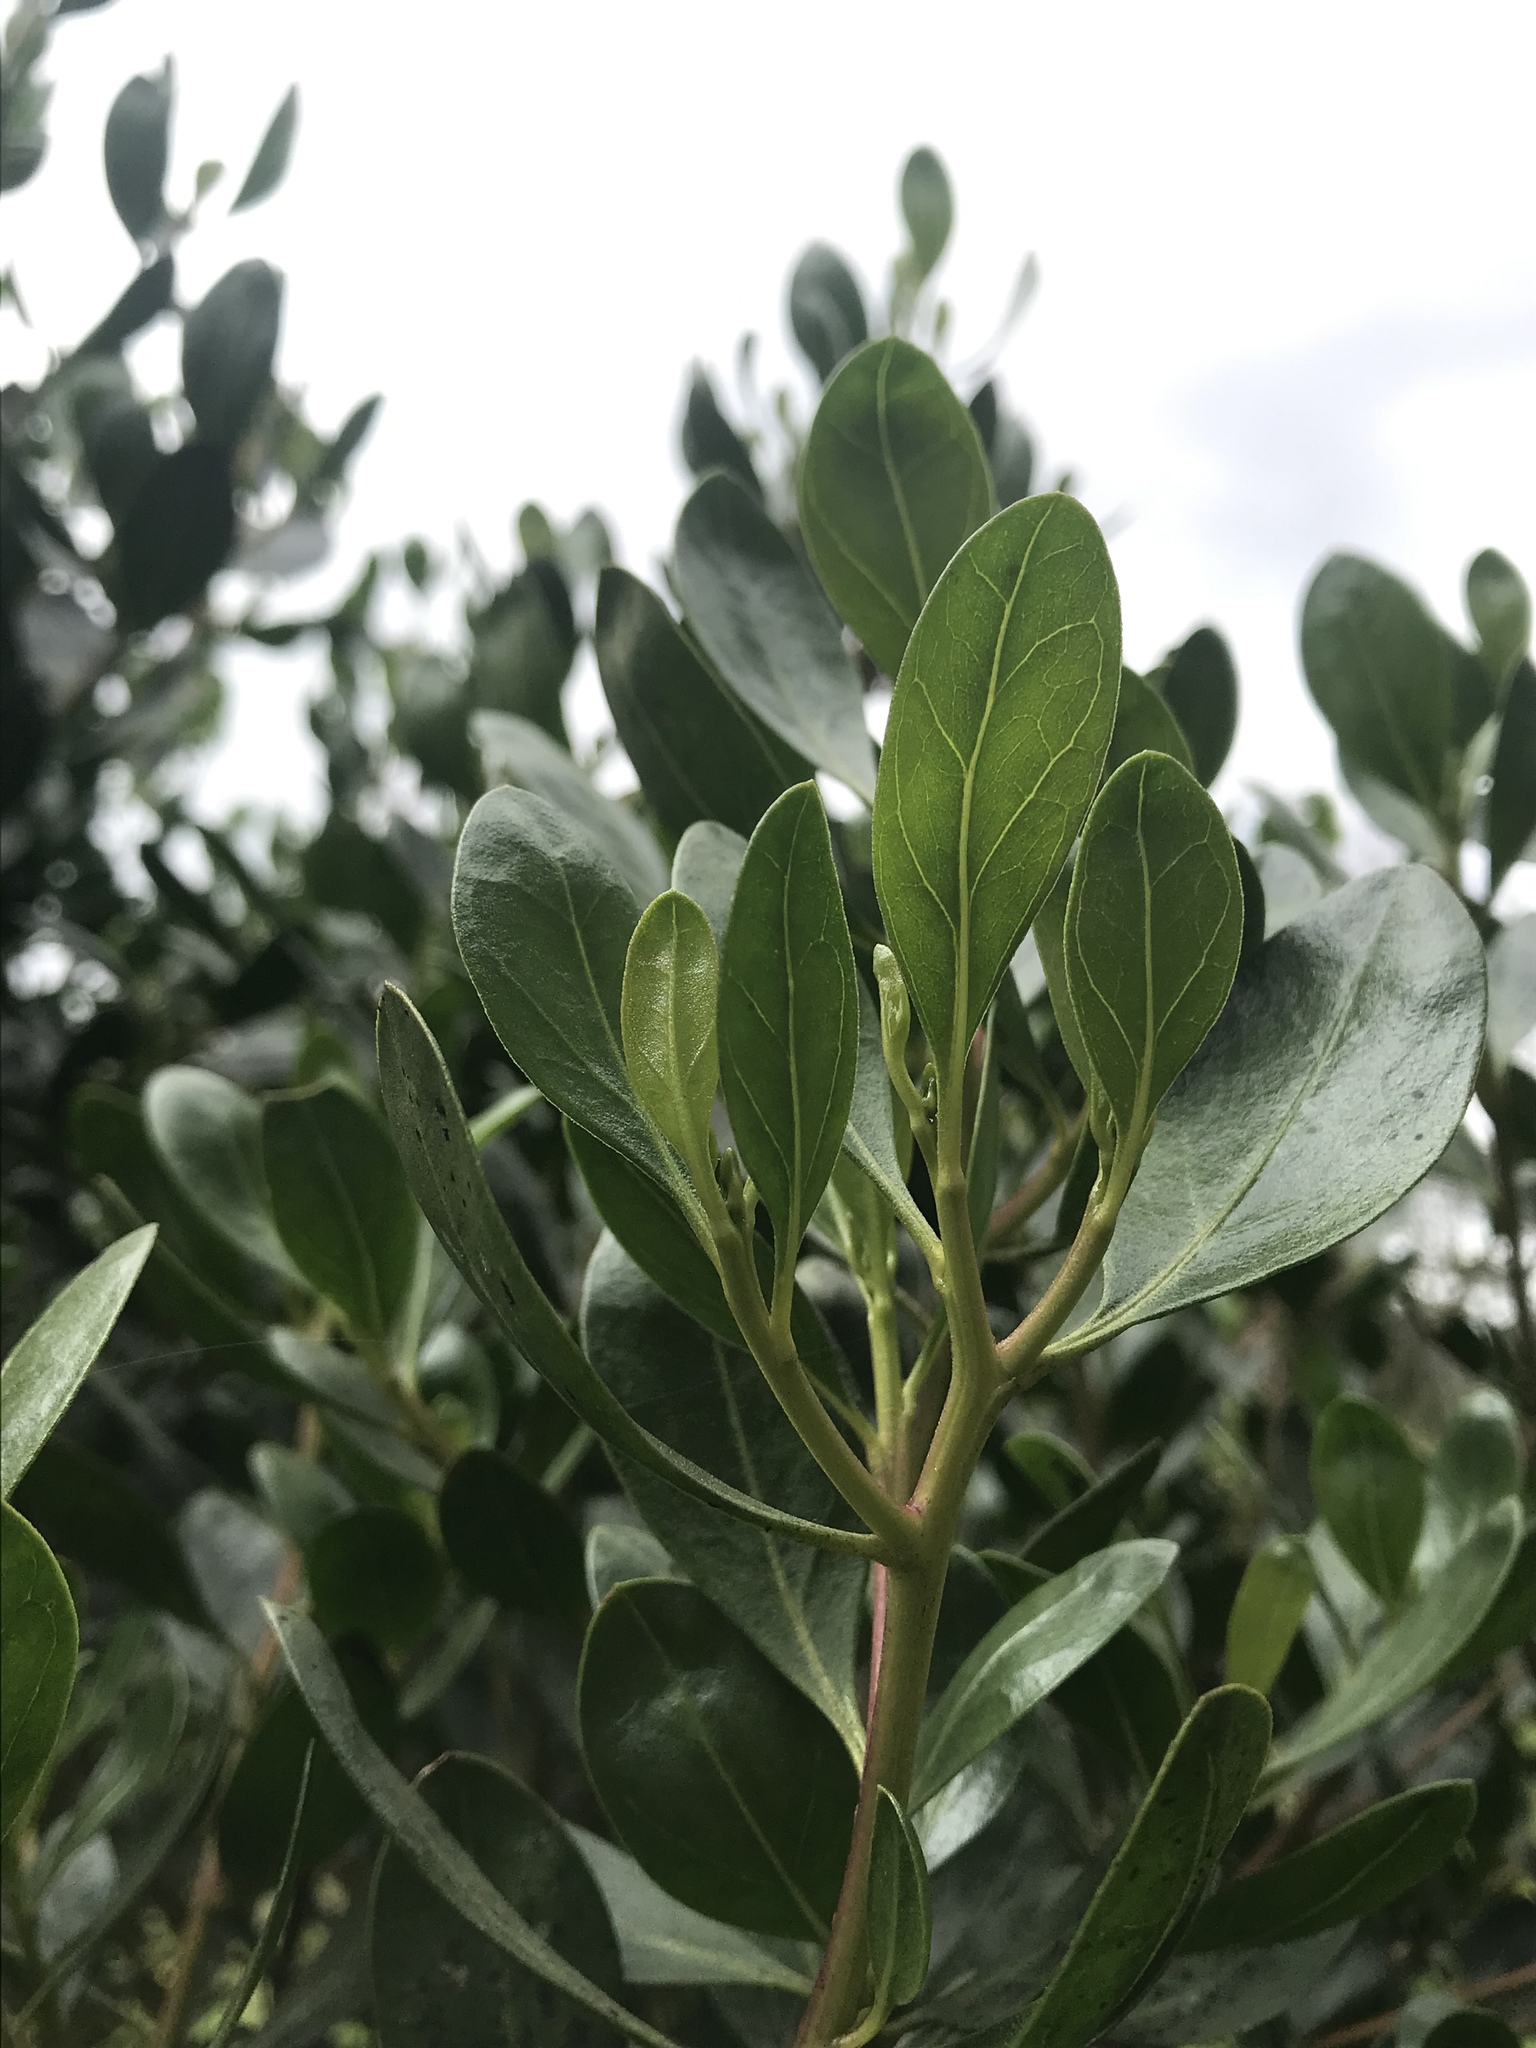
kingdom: Plantae
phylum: Tracheophyta
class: Magnoliopsida
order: Asterales
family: Asteraceae
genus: Baccharis
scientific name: Baccharis macrantha
